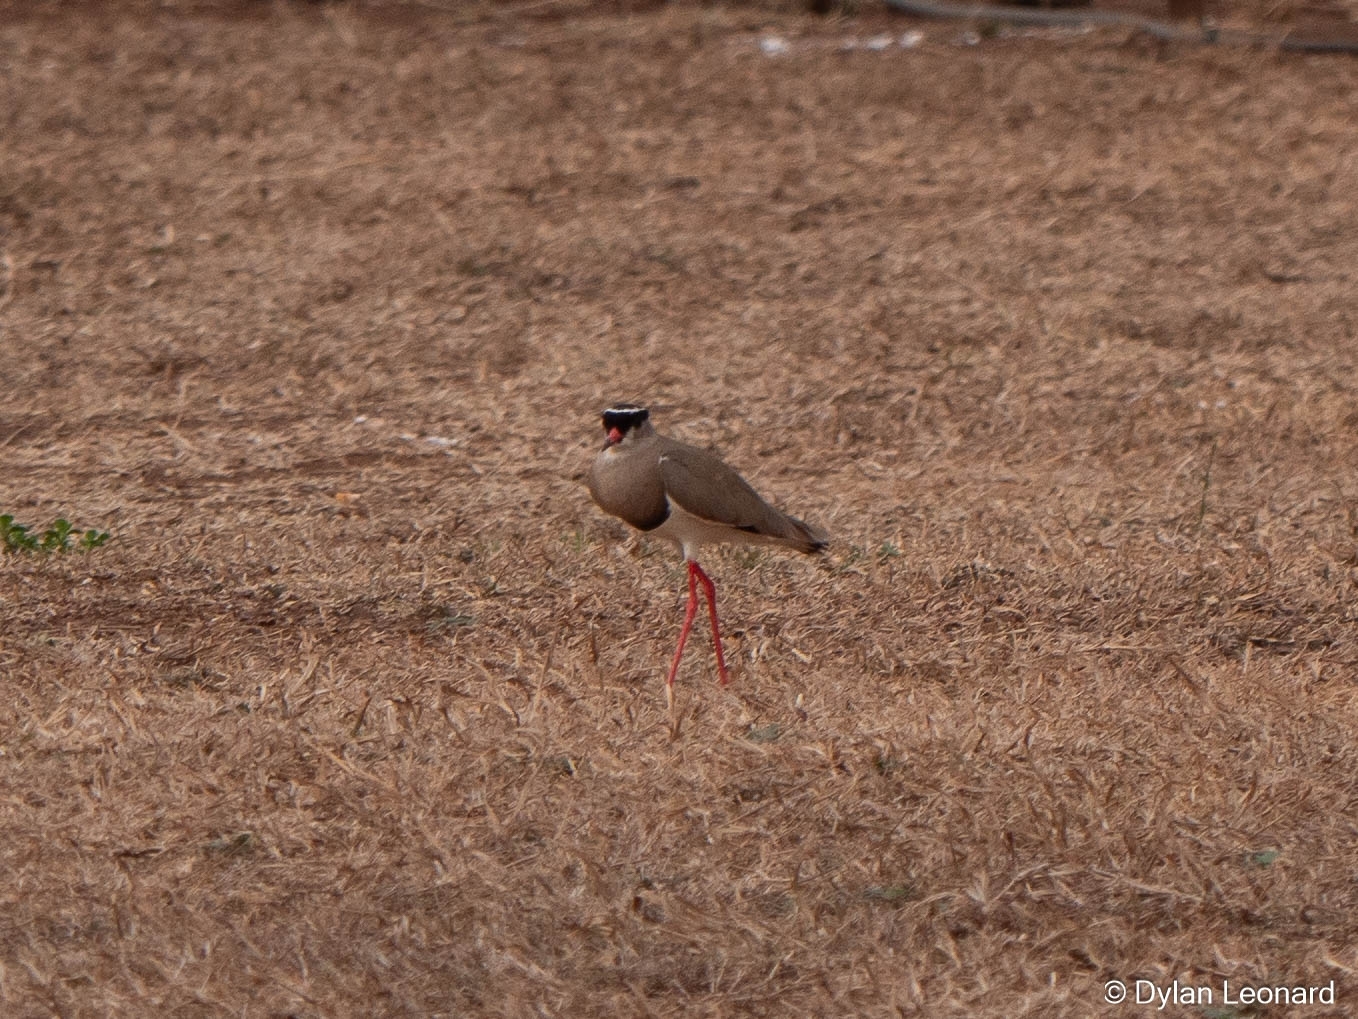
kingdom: Animalia
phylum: Chordata
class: Aves
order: Charadriiformes
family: Charadriidae
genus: Vanellus
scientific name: Vanellus coronatus
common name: Crowned lapwing
